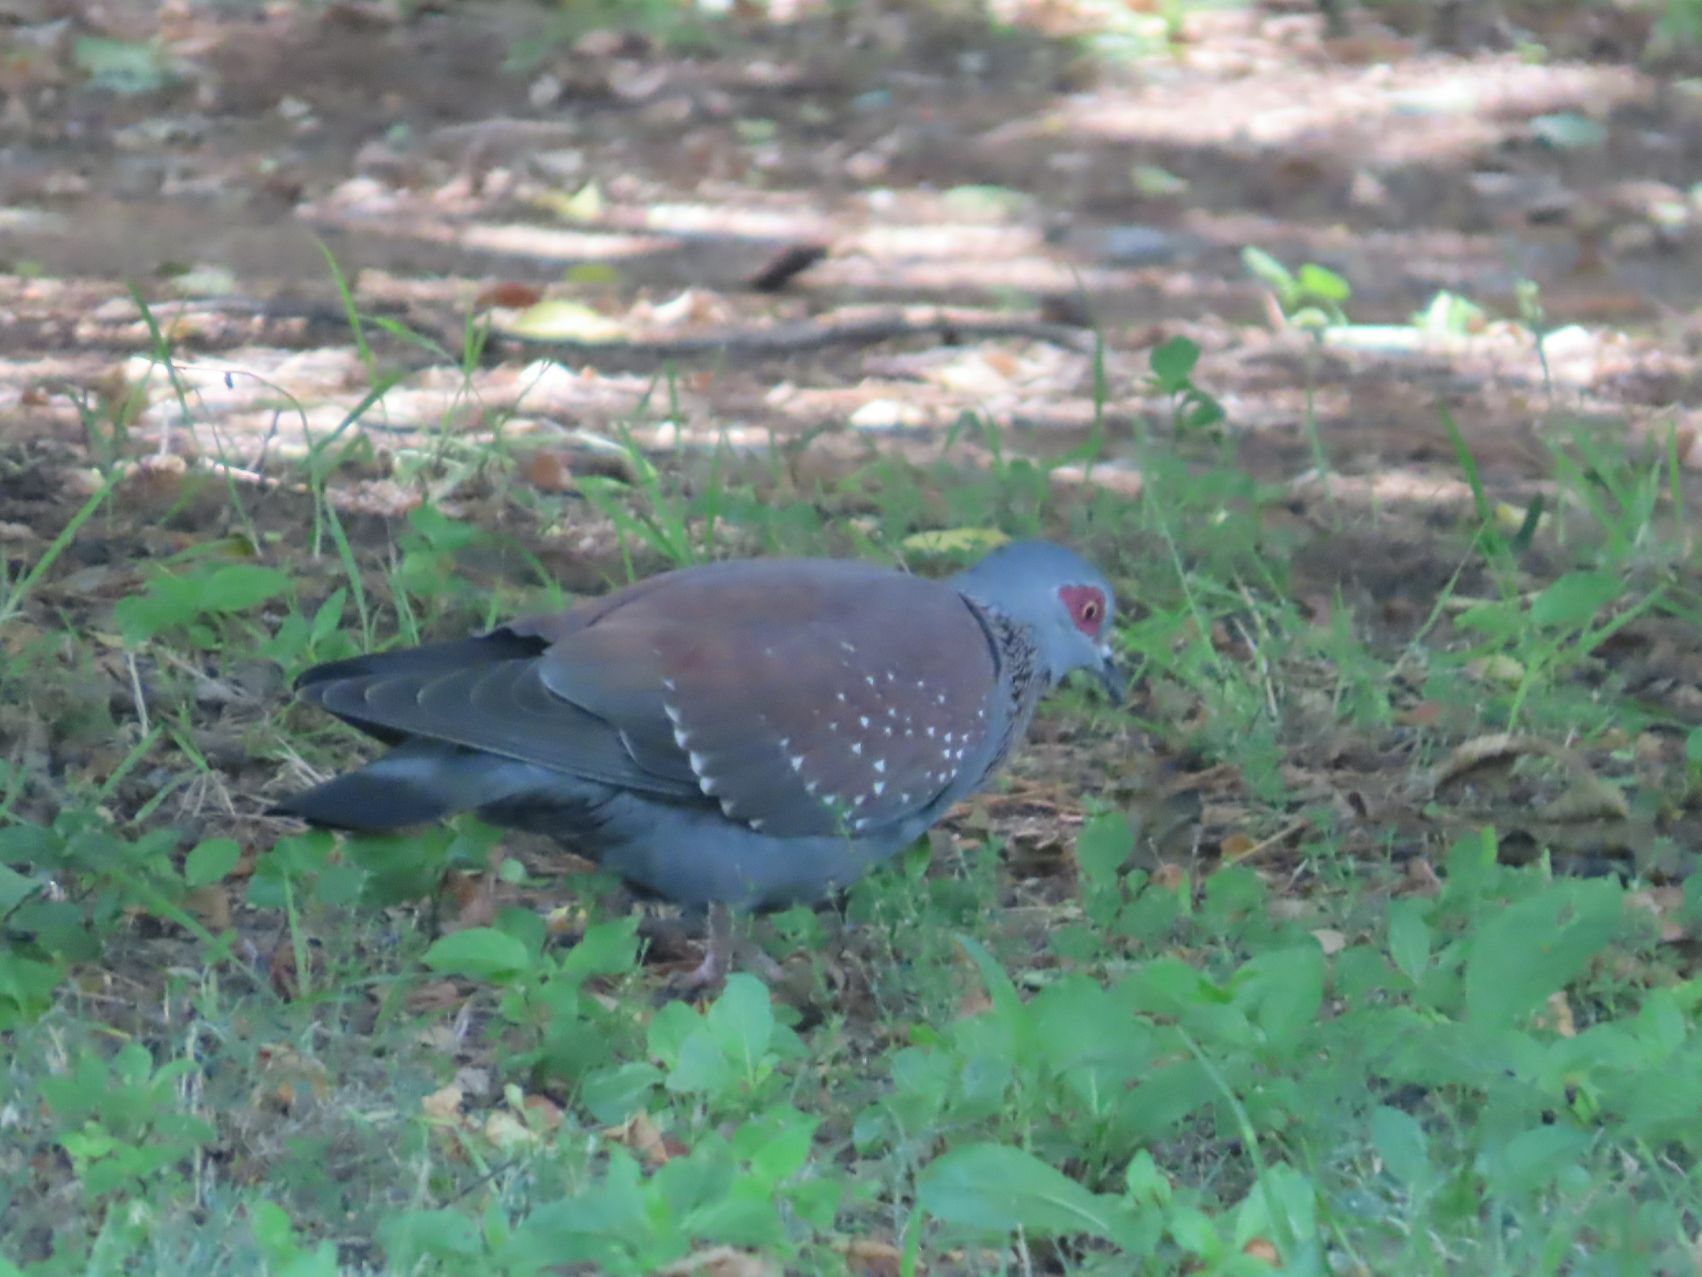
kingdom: Animalia
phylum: Chordata
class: Aves
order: Columbiformes
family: Columbidae
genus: Columba
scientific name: Columba guinea
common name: Speckled pigeon
